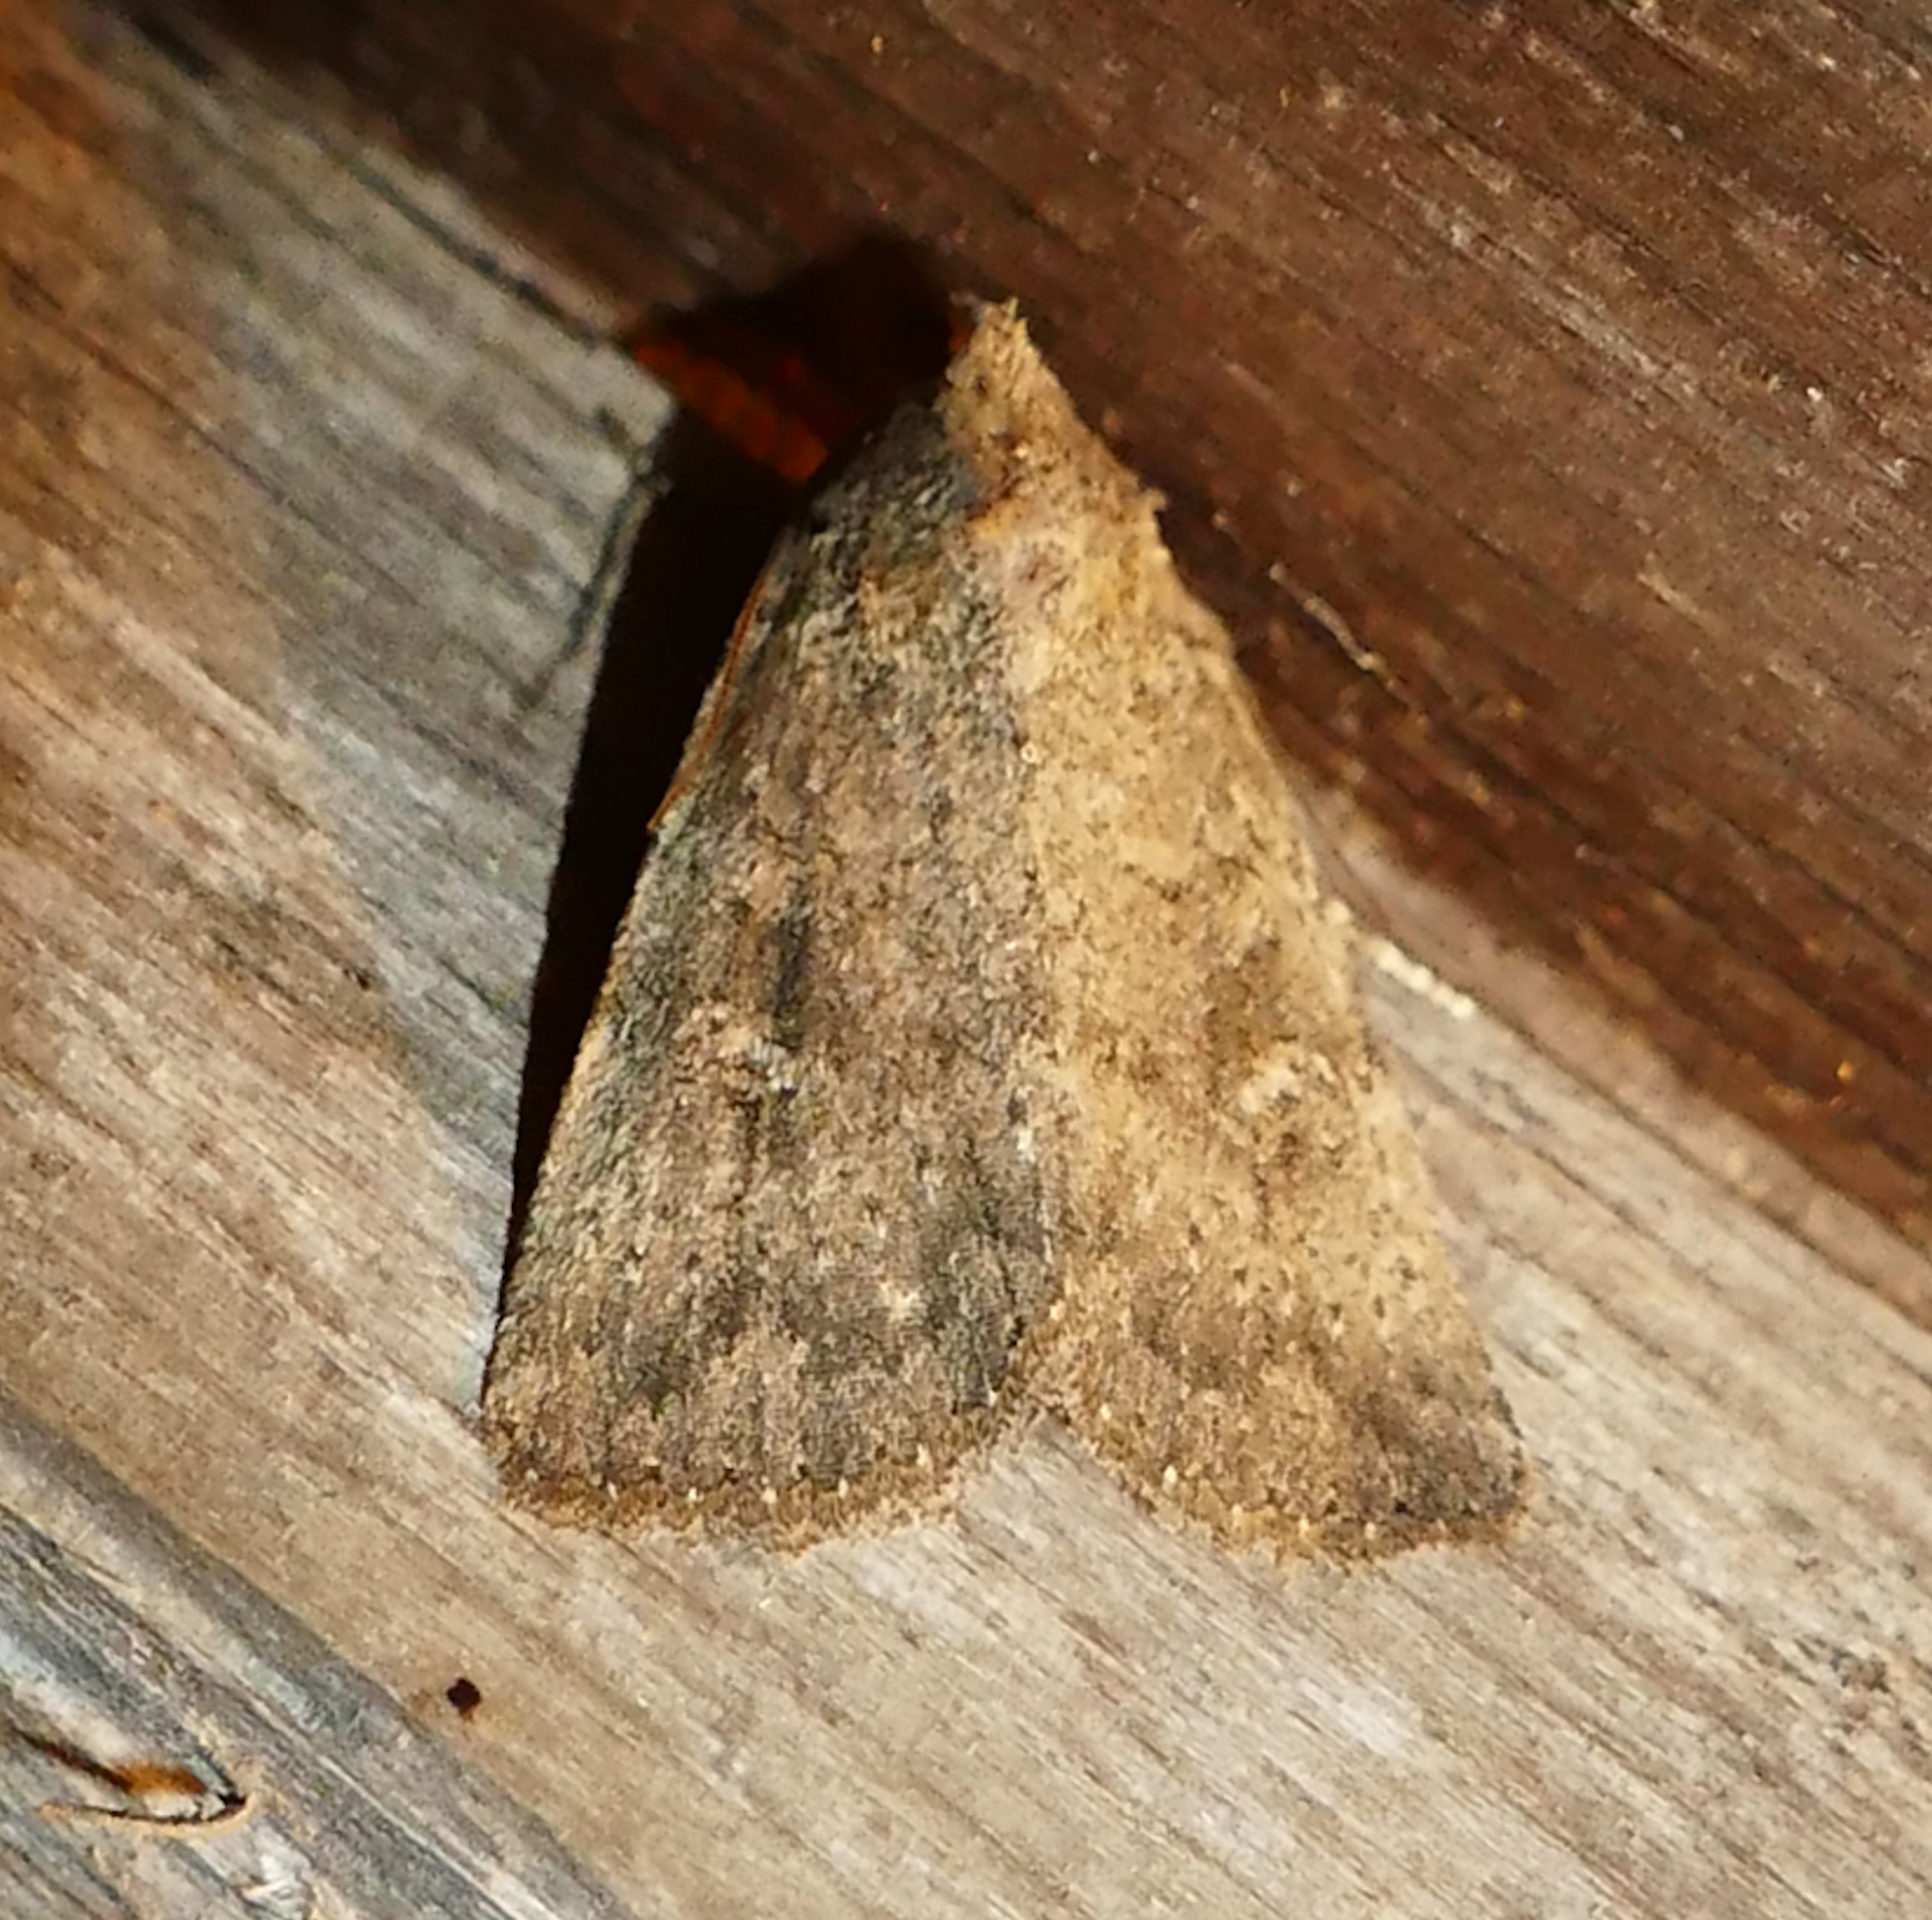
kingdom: Animalia
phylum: Arthropoda
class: Insecta
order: Lepidoptera
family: Noctuidae
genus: Condica
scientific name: Condica sutor
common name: Cobbler moth
